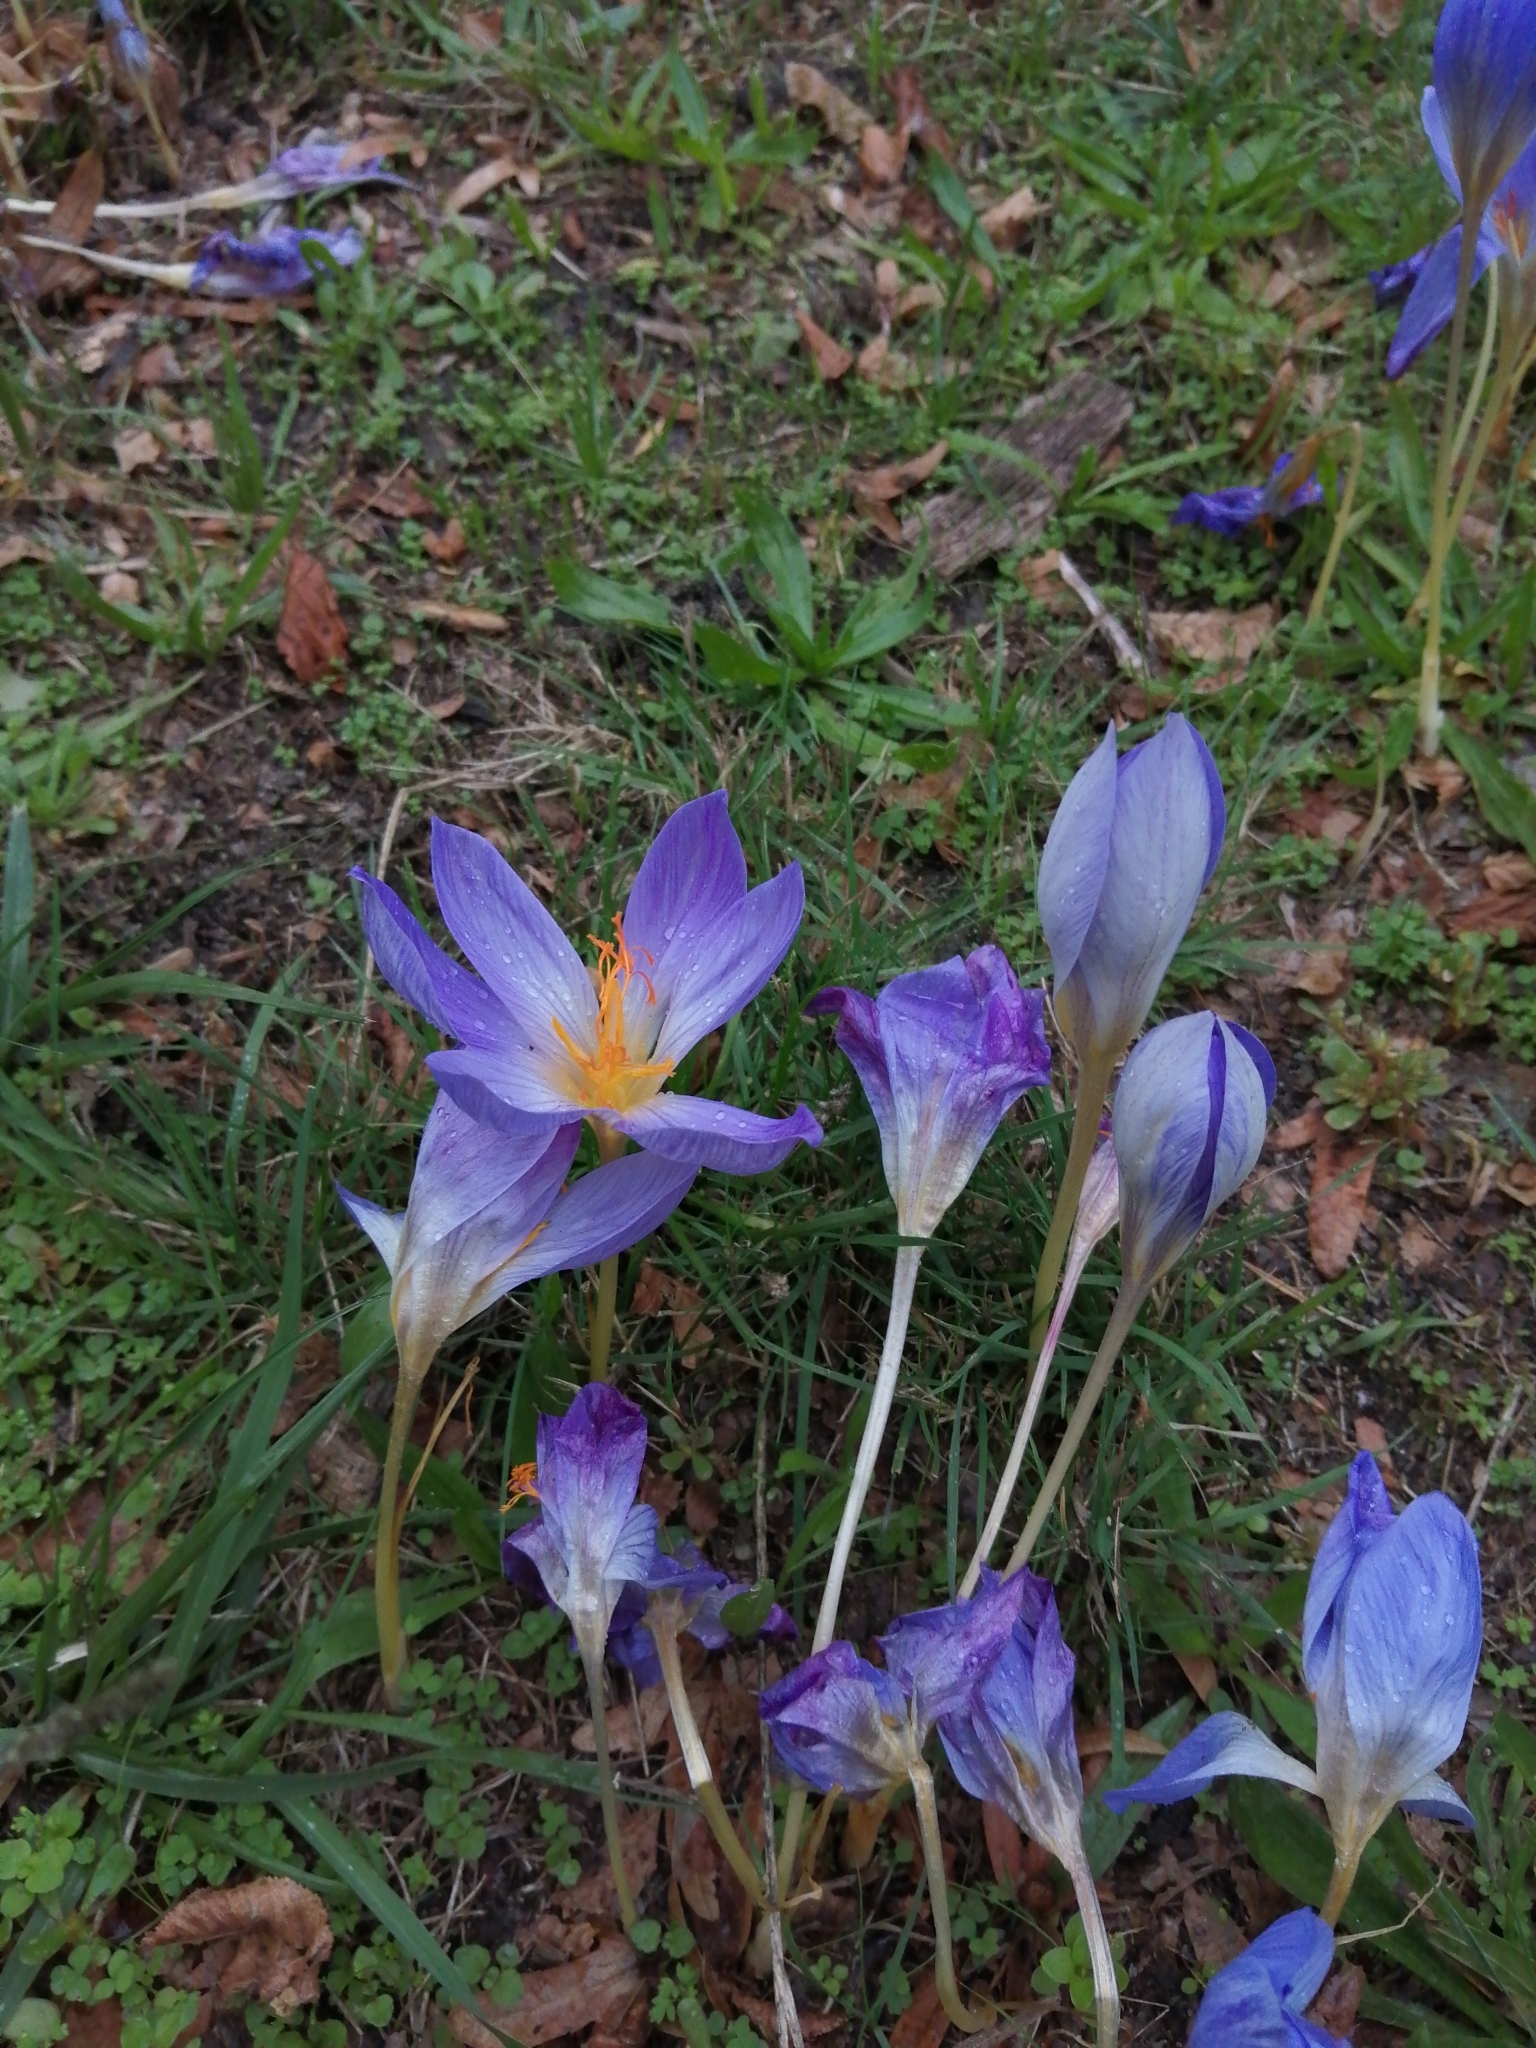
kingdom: Plantae
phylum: Tracheophyta
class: Liliopsida
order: Asparagales
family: Iridaceae
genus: Crocus
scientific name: Crocus speciosus
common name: Bieberstein's crocus
